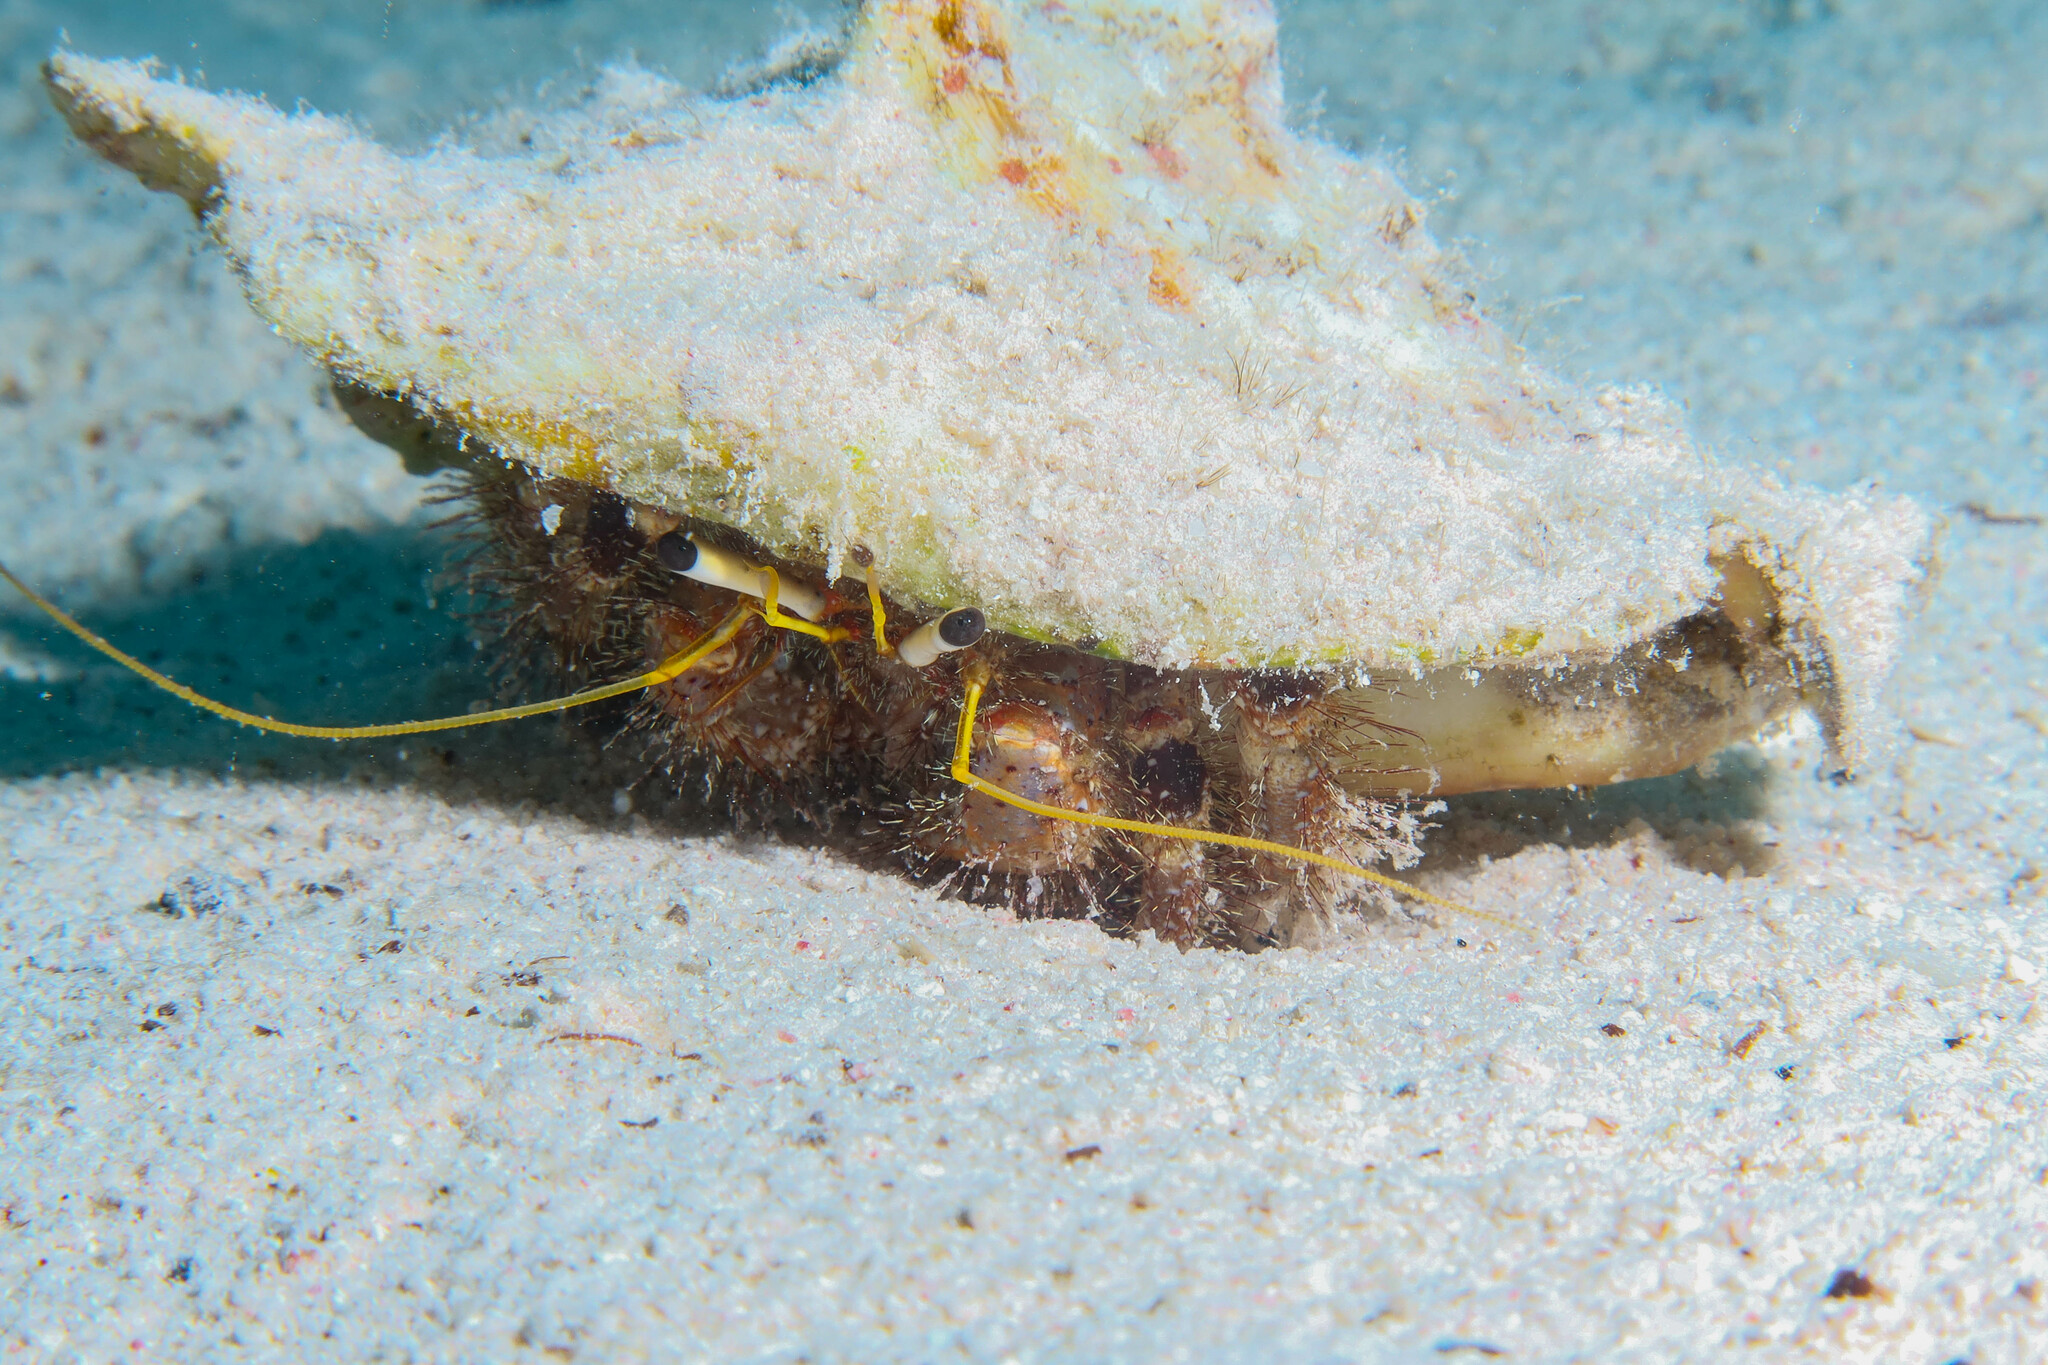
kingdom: Animalia
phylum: Arthropoda
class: Malacostraca
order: Decapoda
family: Diogenidae
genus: Dardanus
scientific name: Dardanus lagopodes
